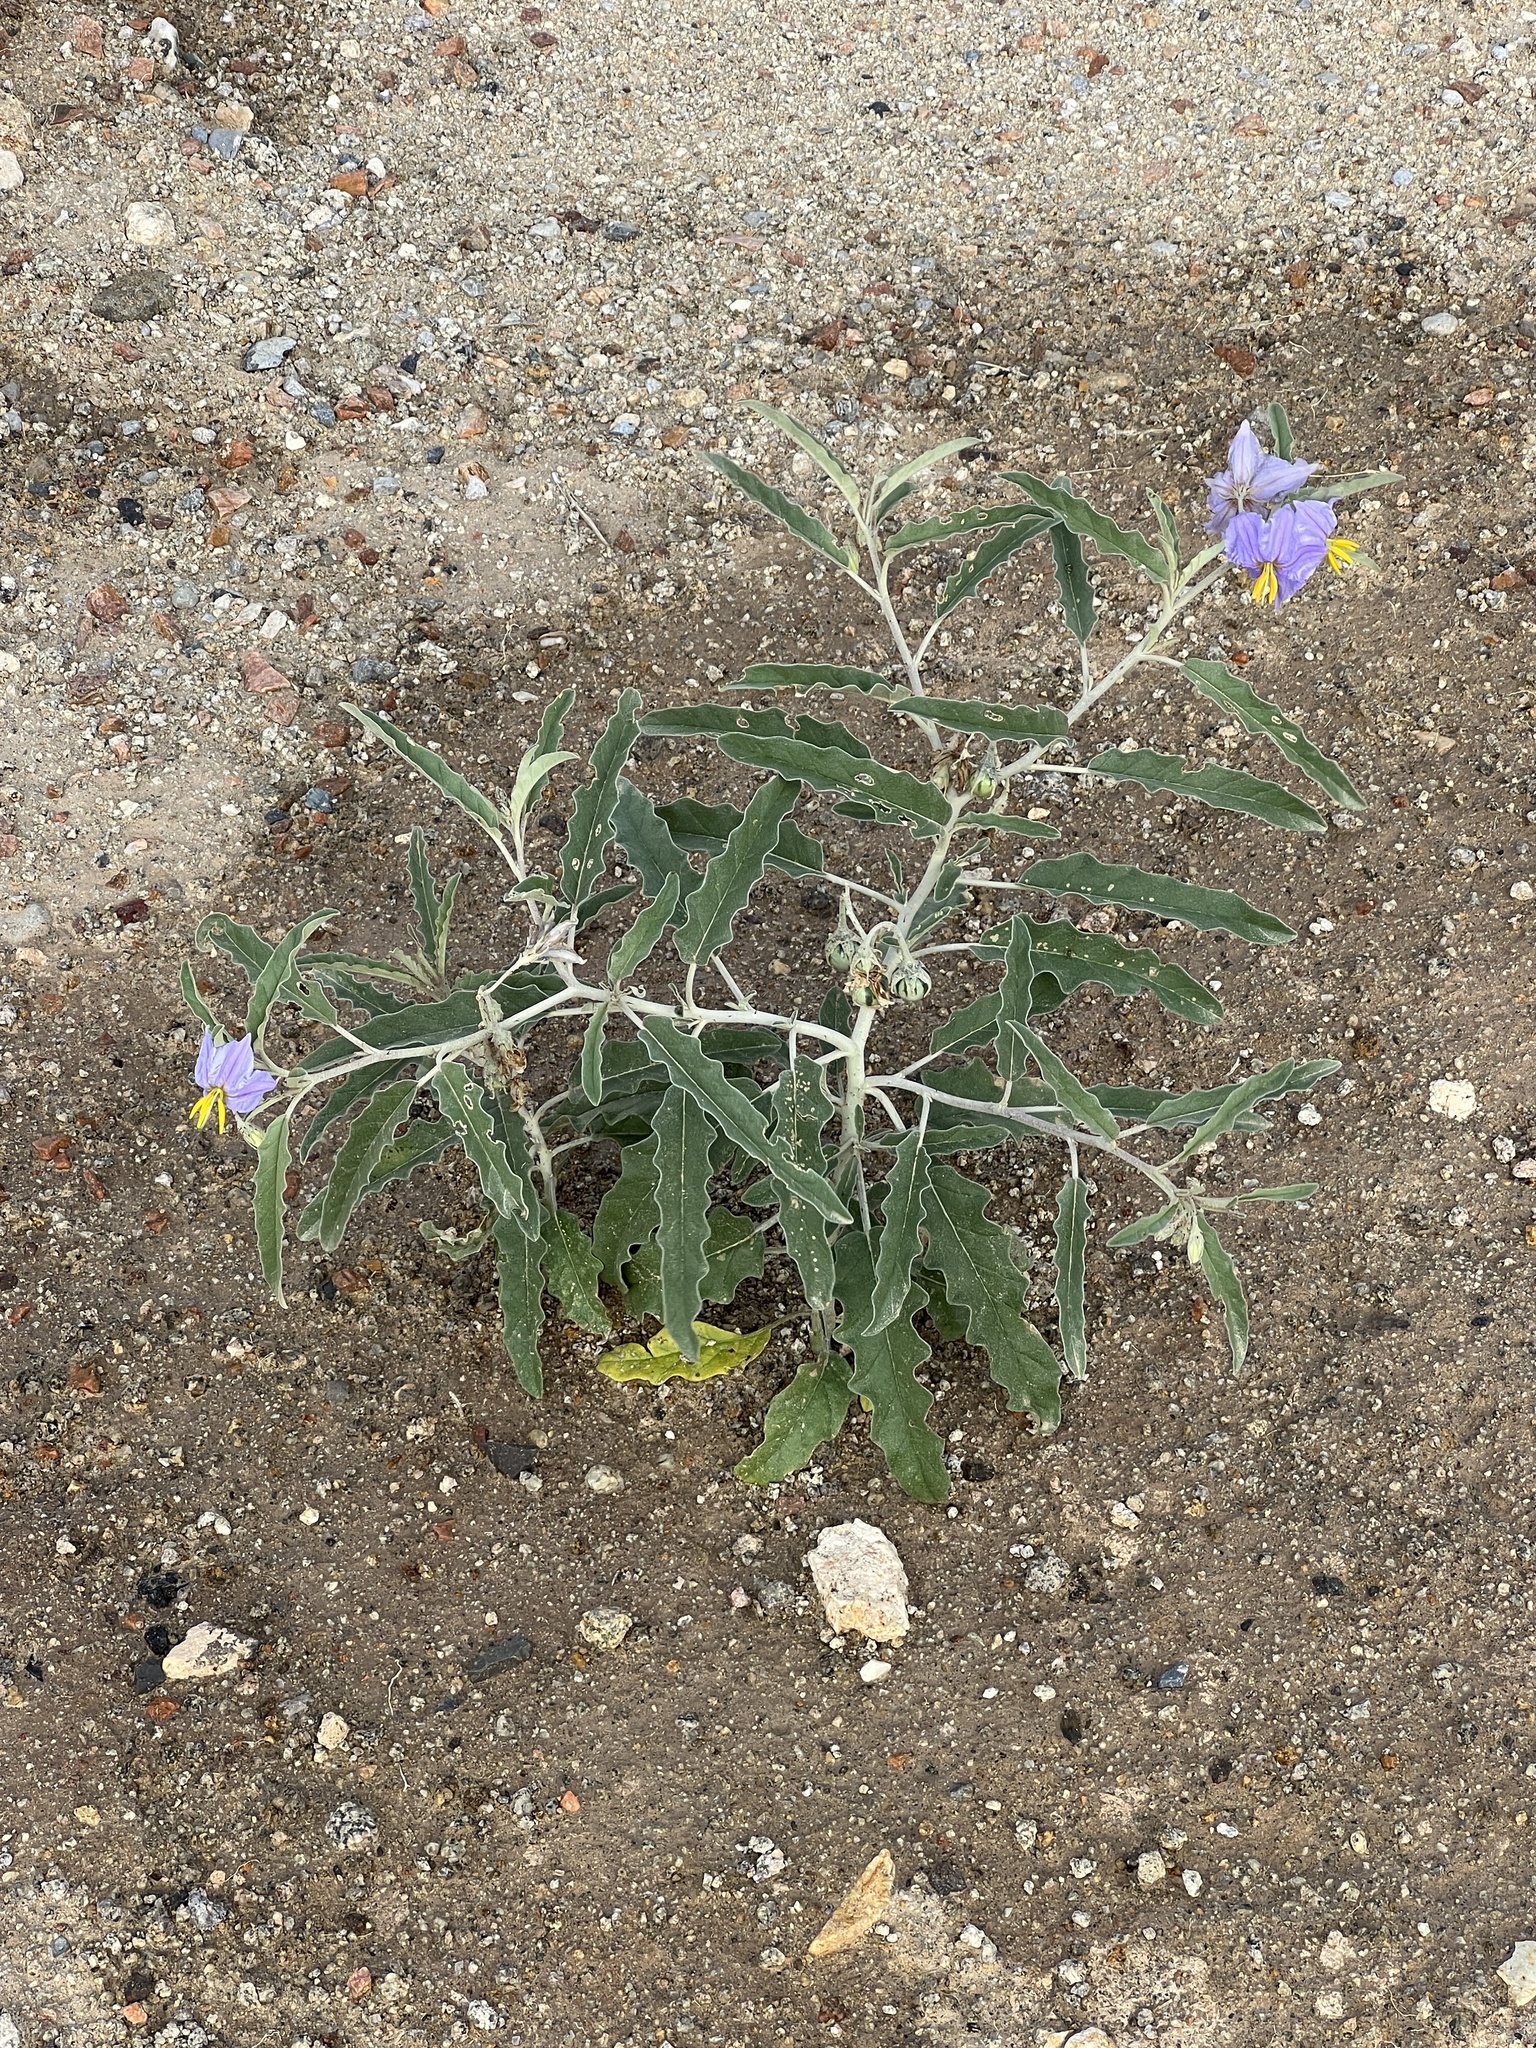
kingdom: Plantae
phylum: Tracheophyta
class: Magnoliopsida
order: Solanales
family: Solanaceae
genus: Solanum
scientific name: Solanum elaeagnifolium
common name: Silverleaf nightshade
